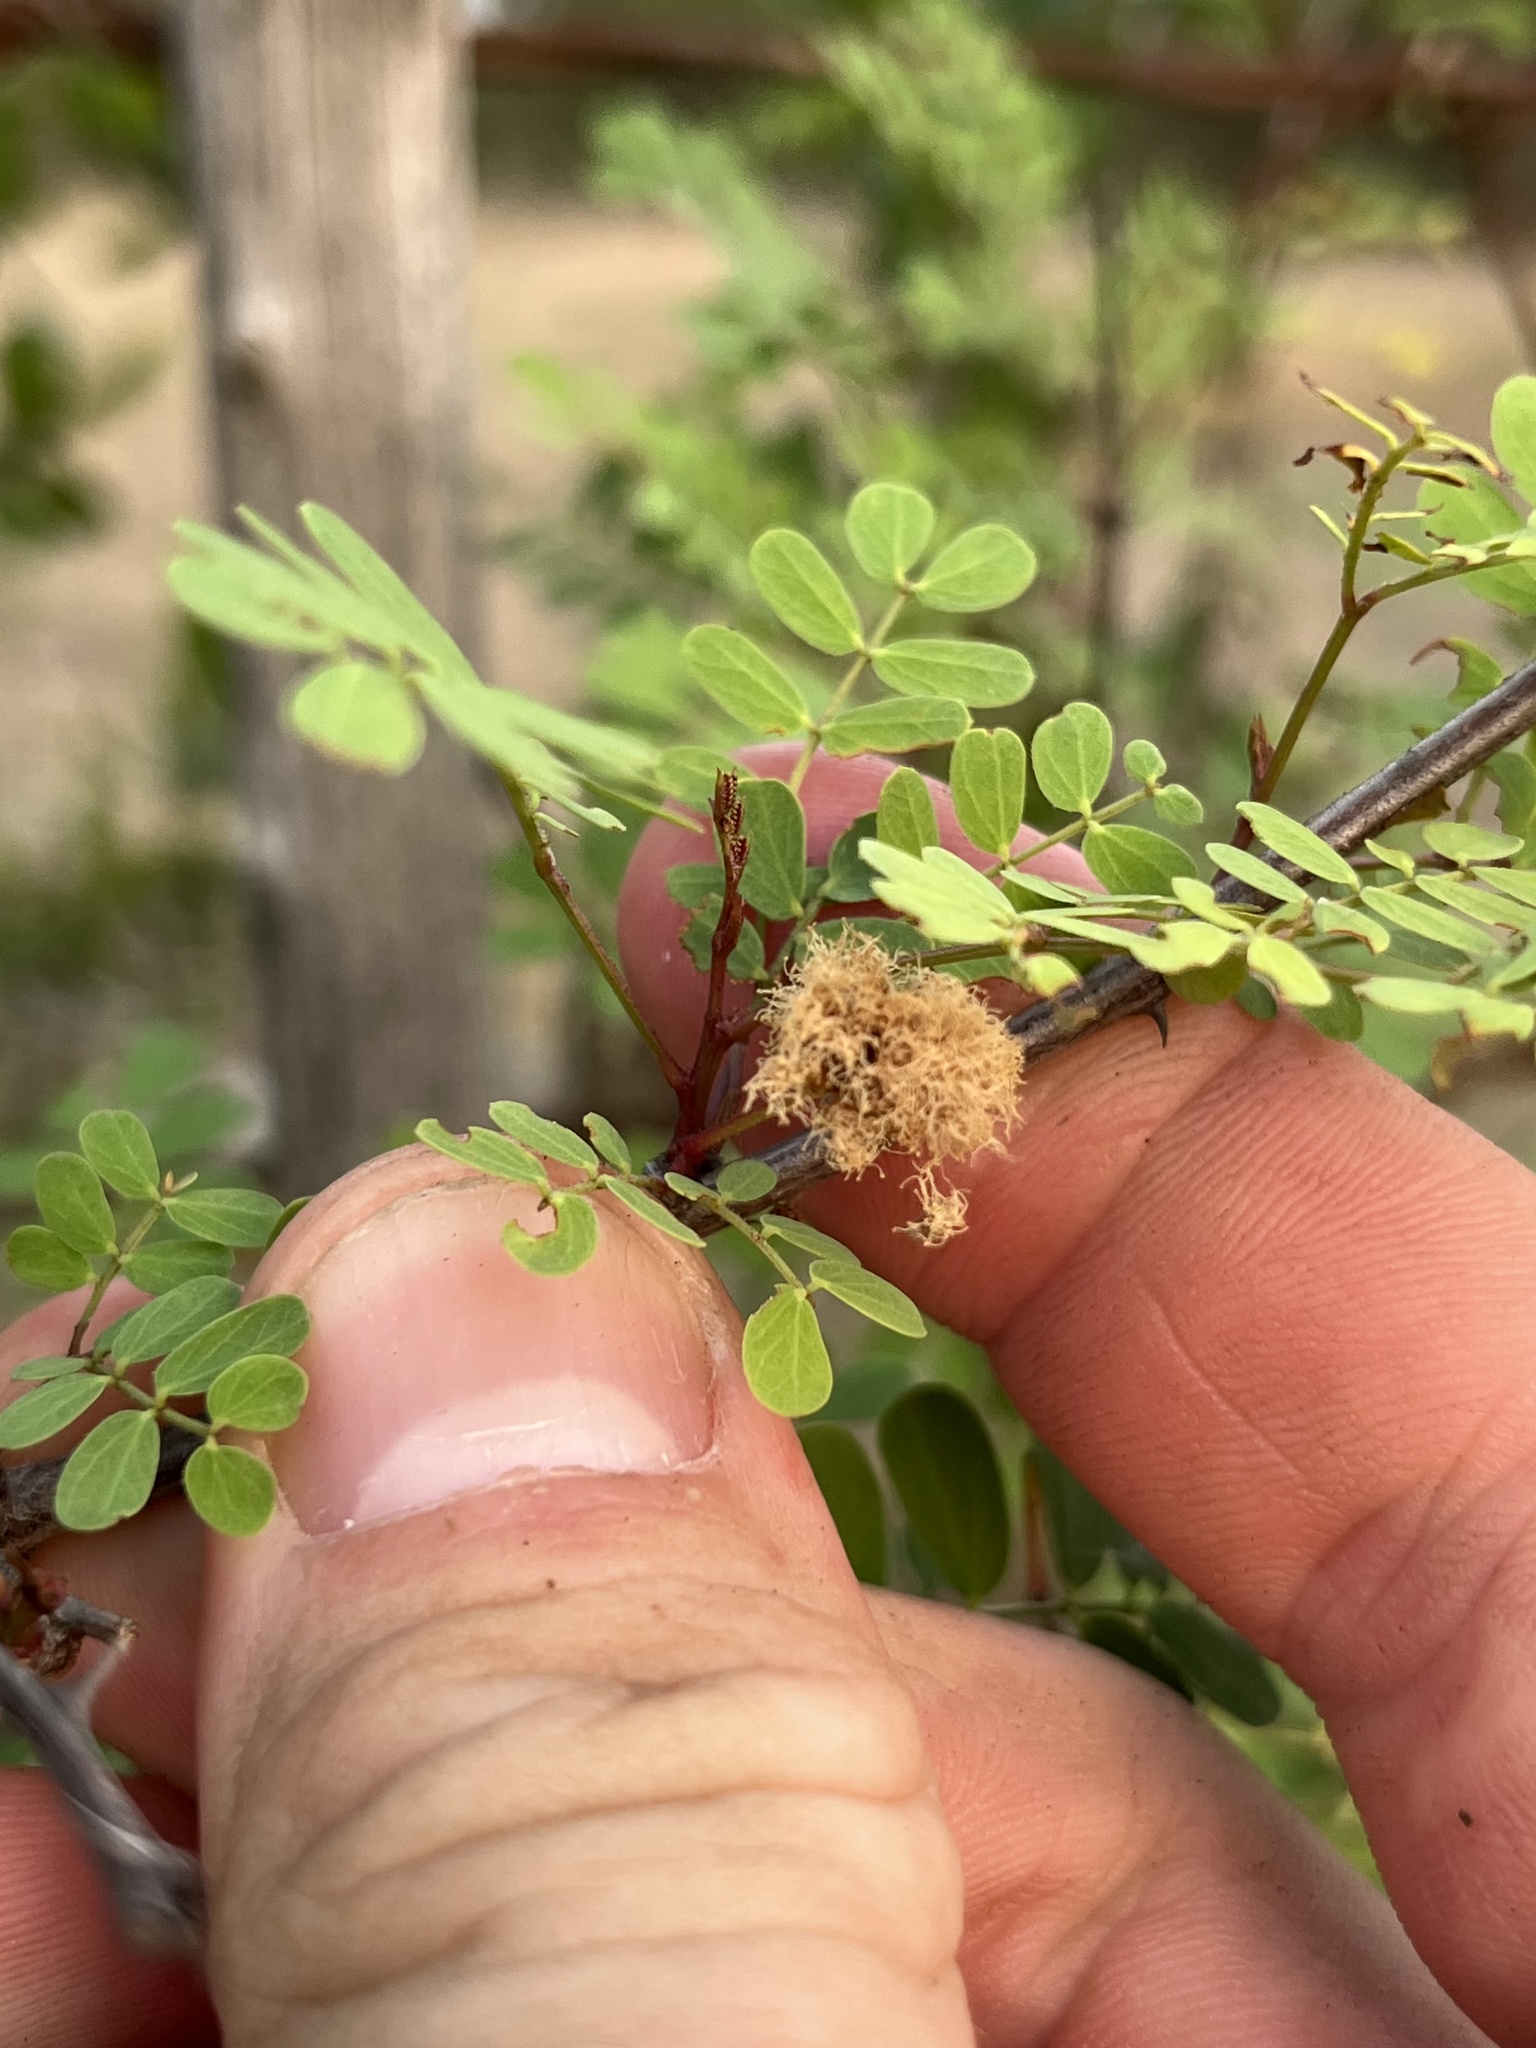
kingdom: Plantae
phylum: Tracheophyta
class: Magnoliopsida
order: Fabales
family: Fabaceae
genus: Senegalia
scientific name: Senegalia roemeriana
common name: Roemer's acacia
